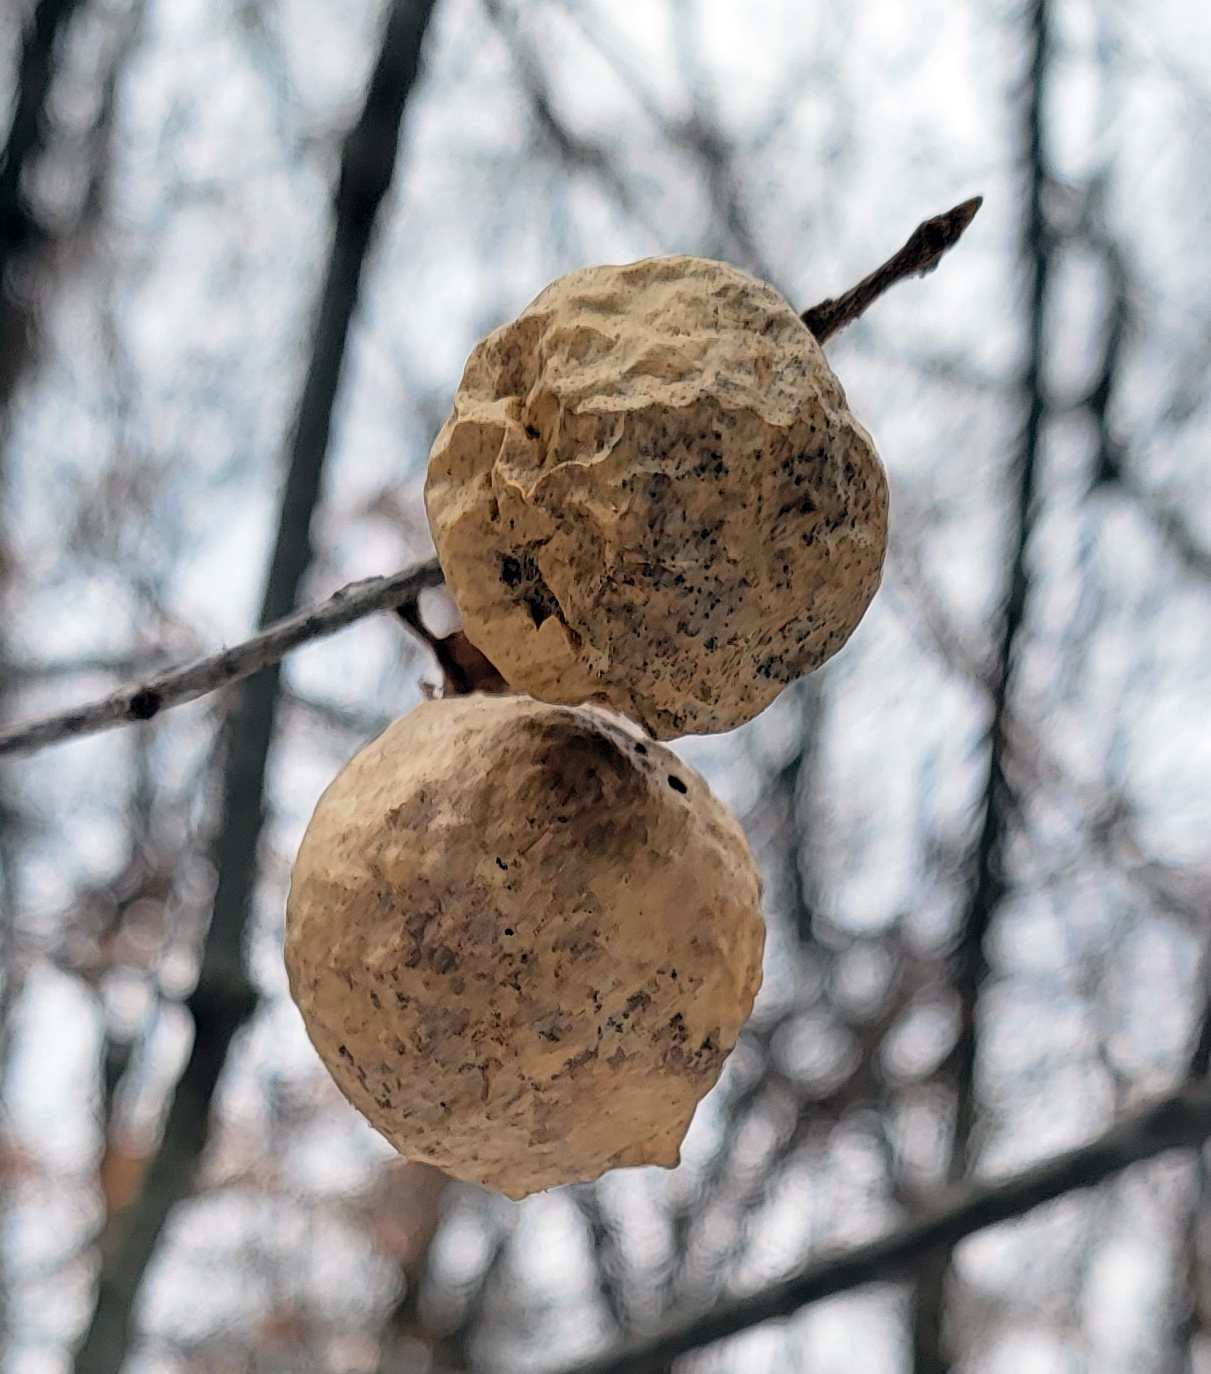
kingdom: Animalia
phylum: Arthropoda
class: Insecta
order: Hymenoptera
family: Cynipidae
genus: Amphibolips
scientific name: Amphibolips
